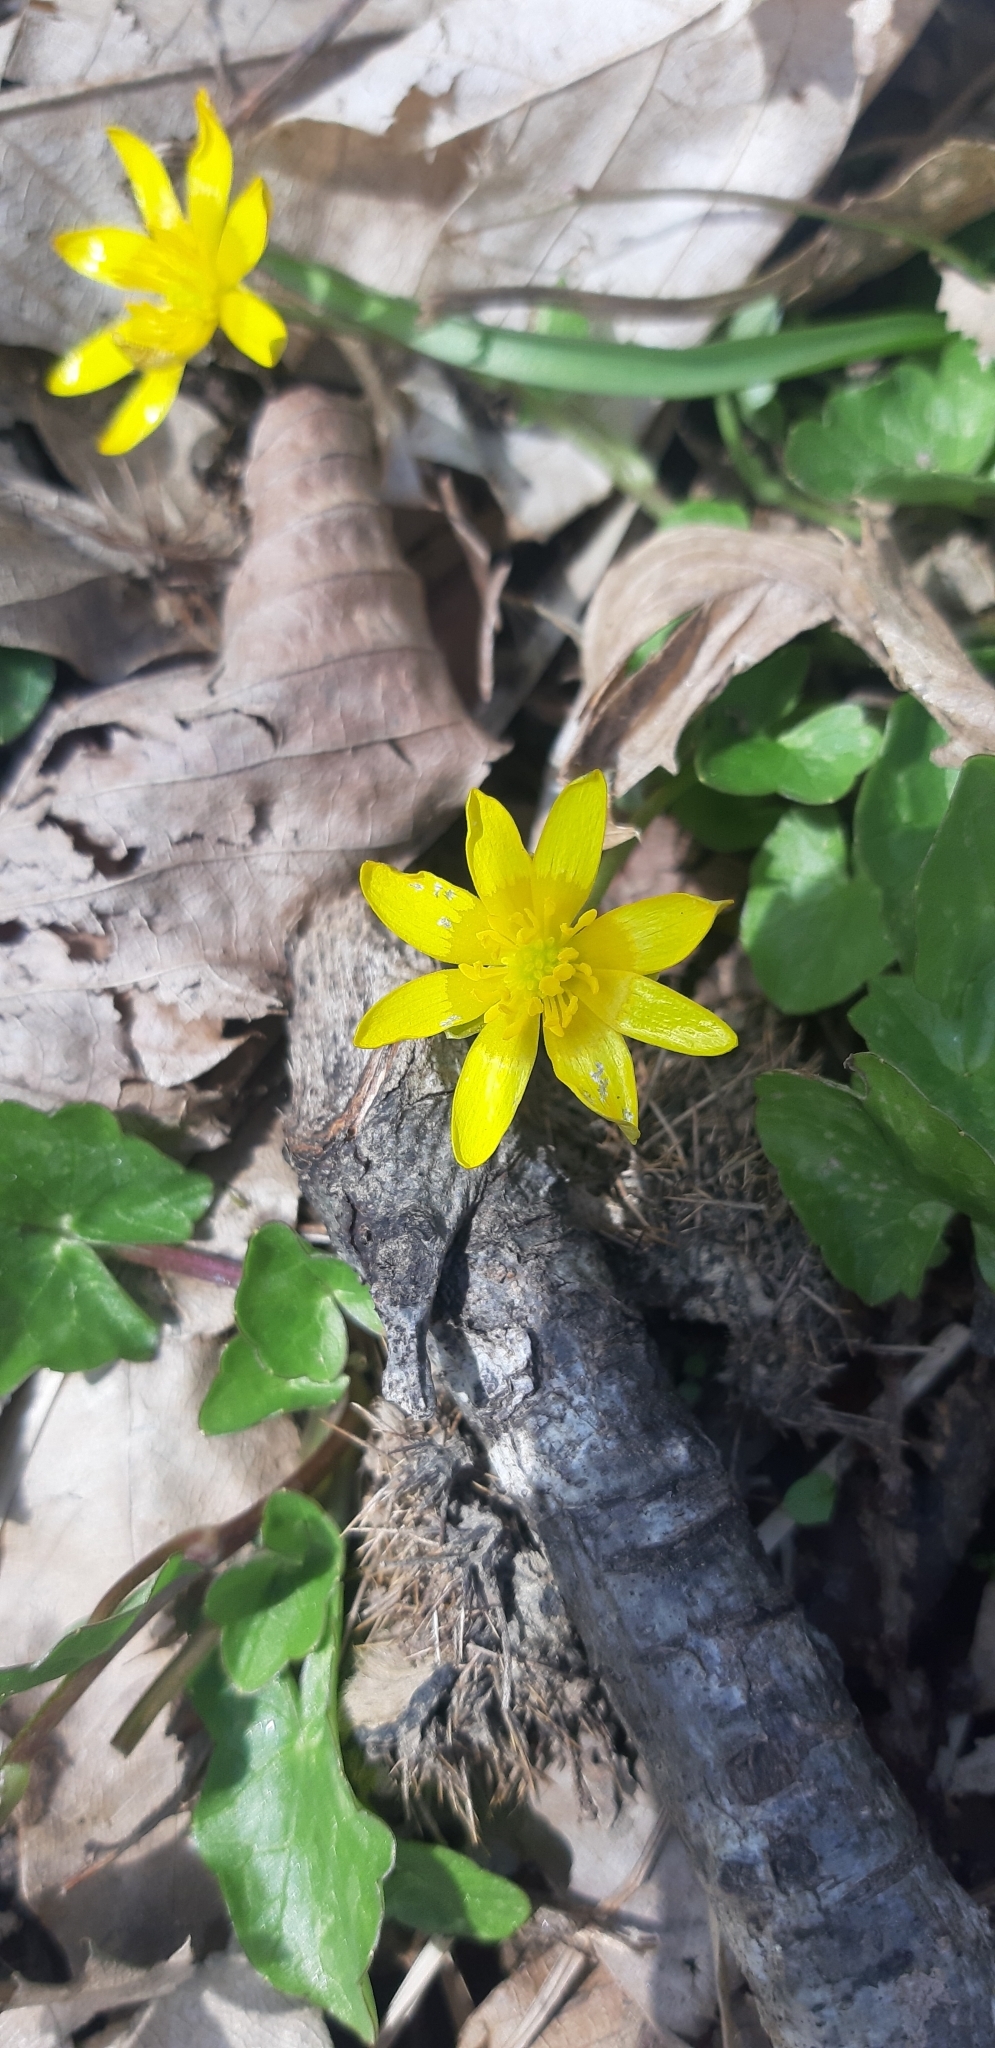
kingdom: Plantae
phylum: Tracheophyta
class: Magnoliopsida
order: Ranunculales
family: Ranunculaceae
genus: Ficaria
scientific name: Ficaria verna
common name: Lesser celandine
